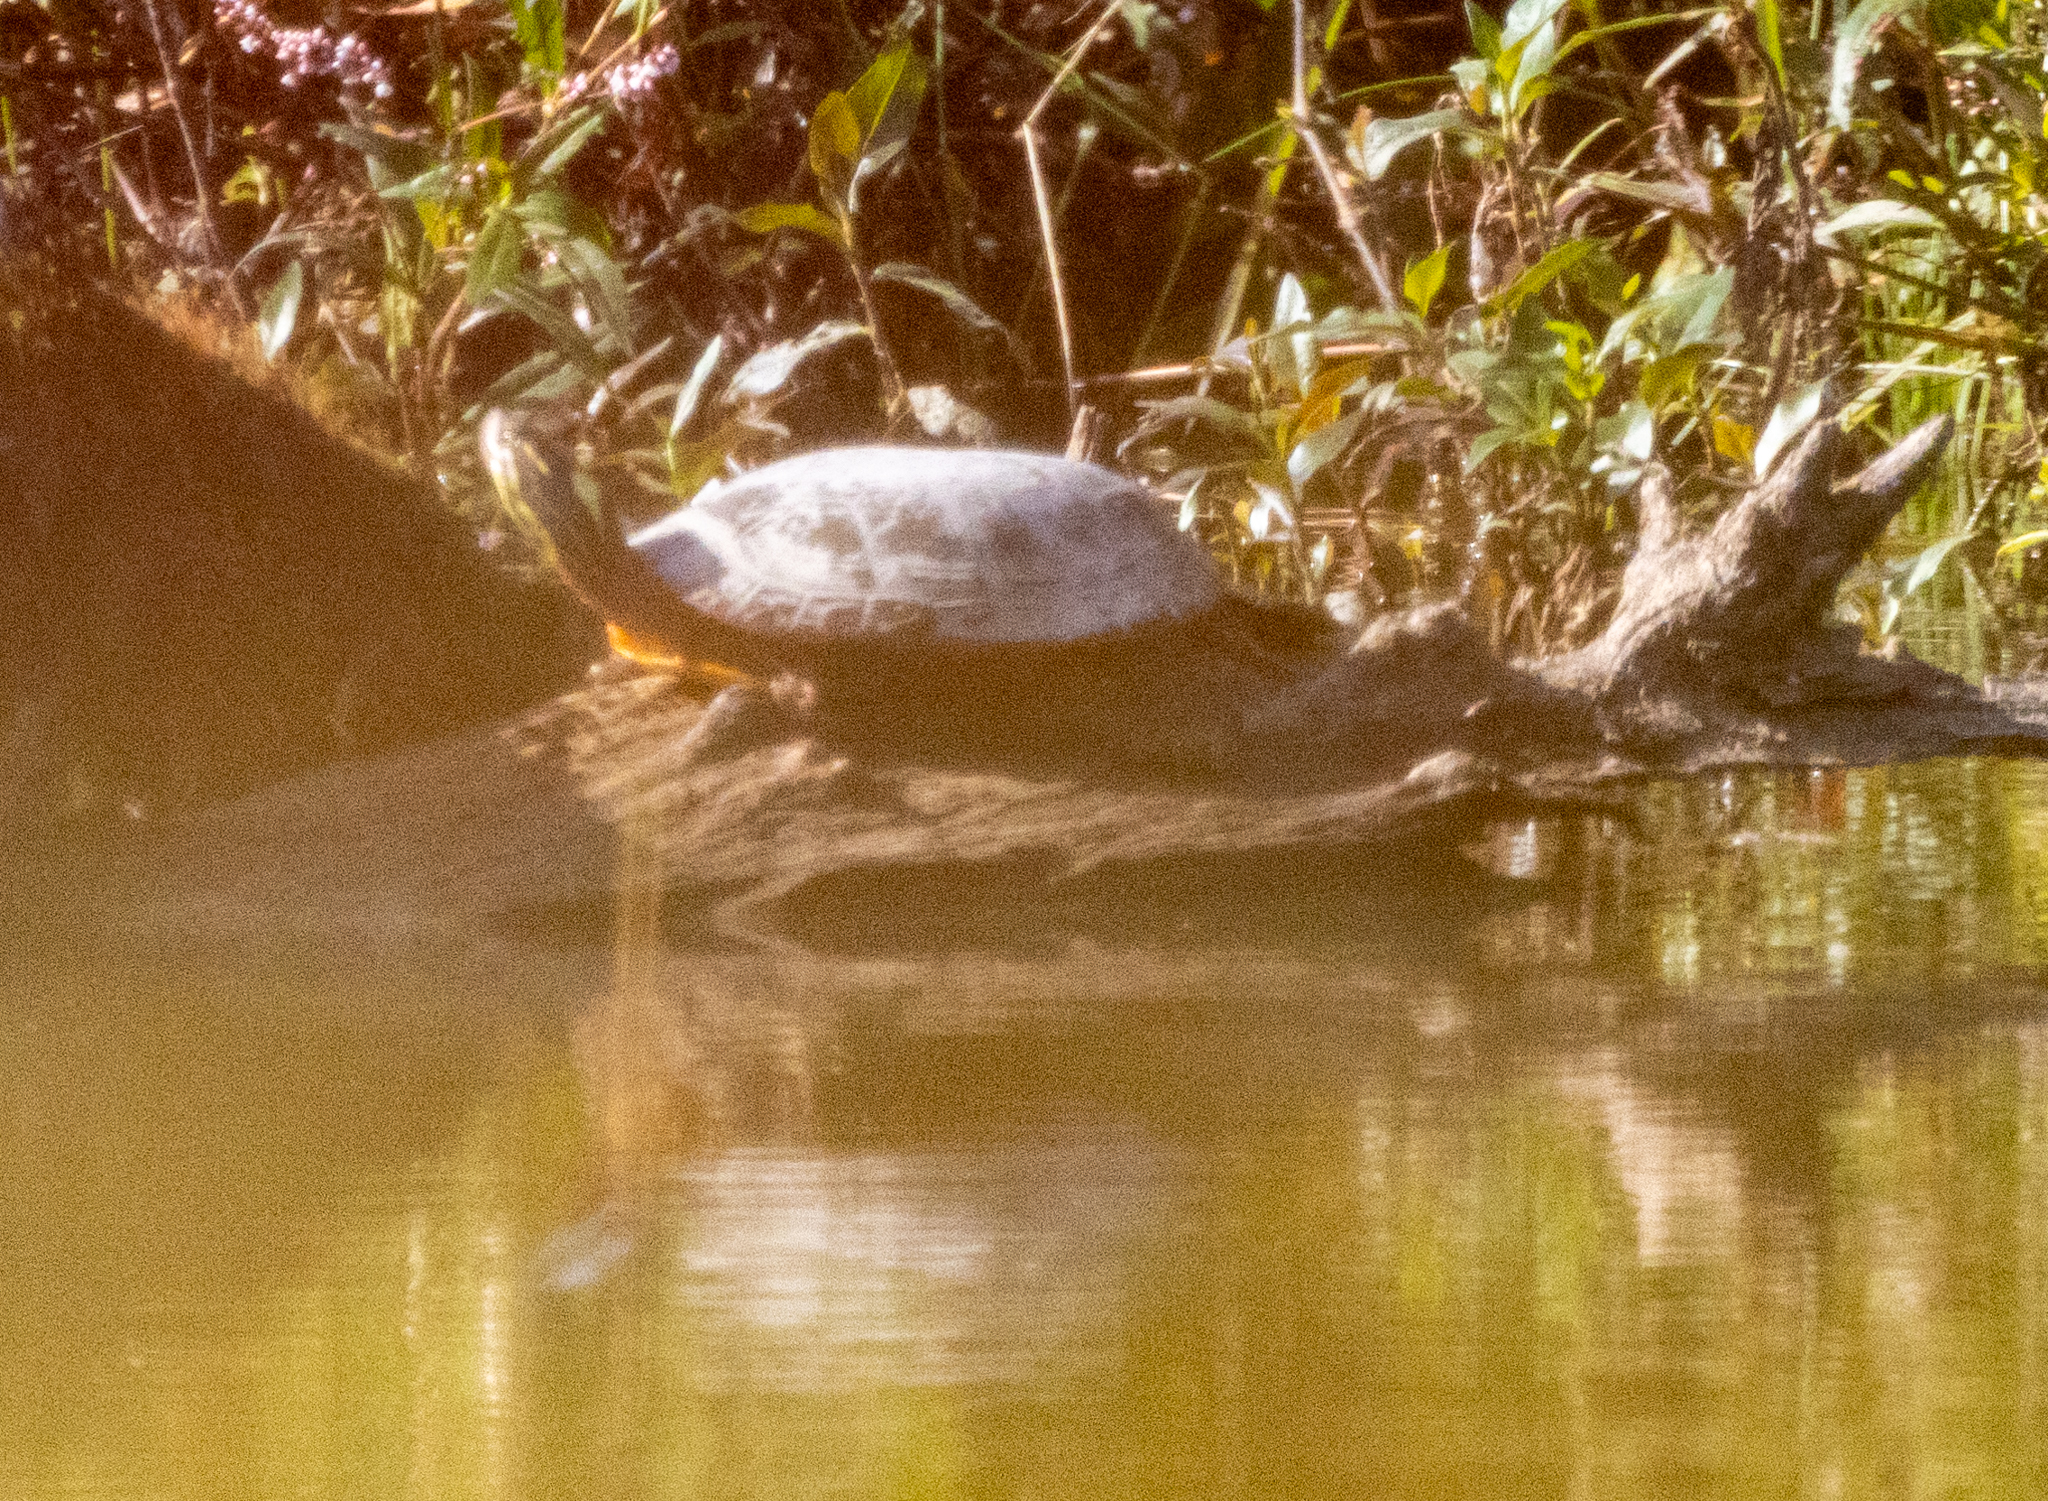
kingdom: Animalia
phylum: Chordata
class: Testudines
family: Emydidae
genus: Chrysemys
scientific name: Chrysemys picta
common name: Painted turtle
